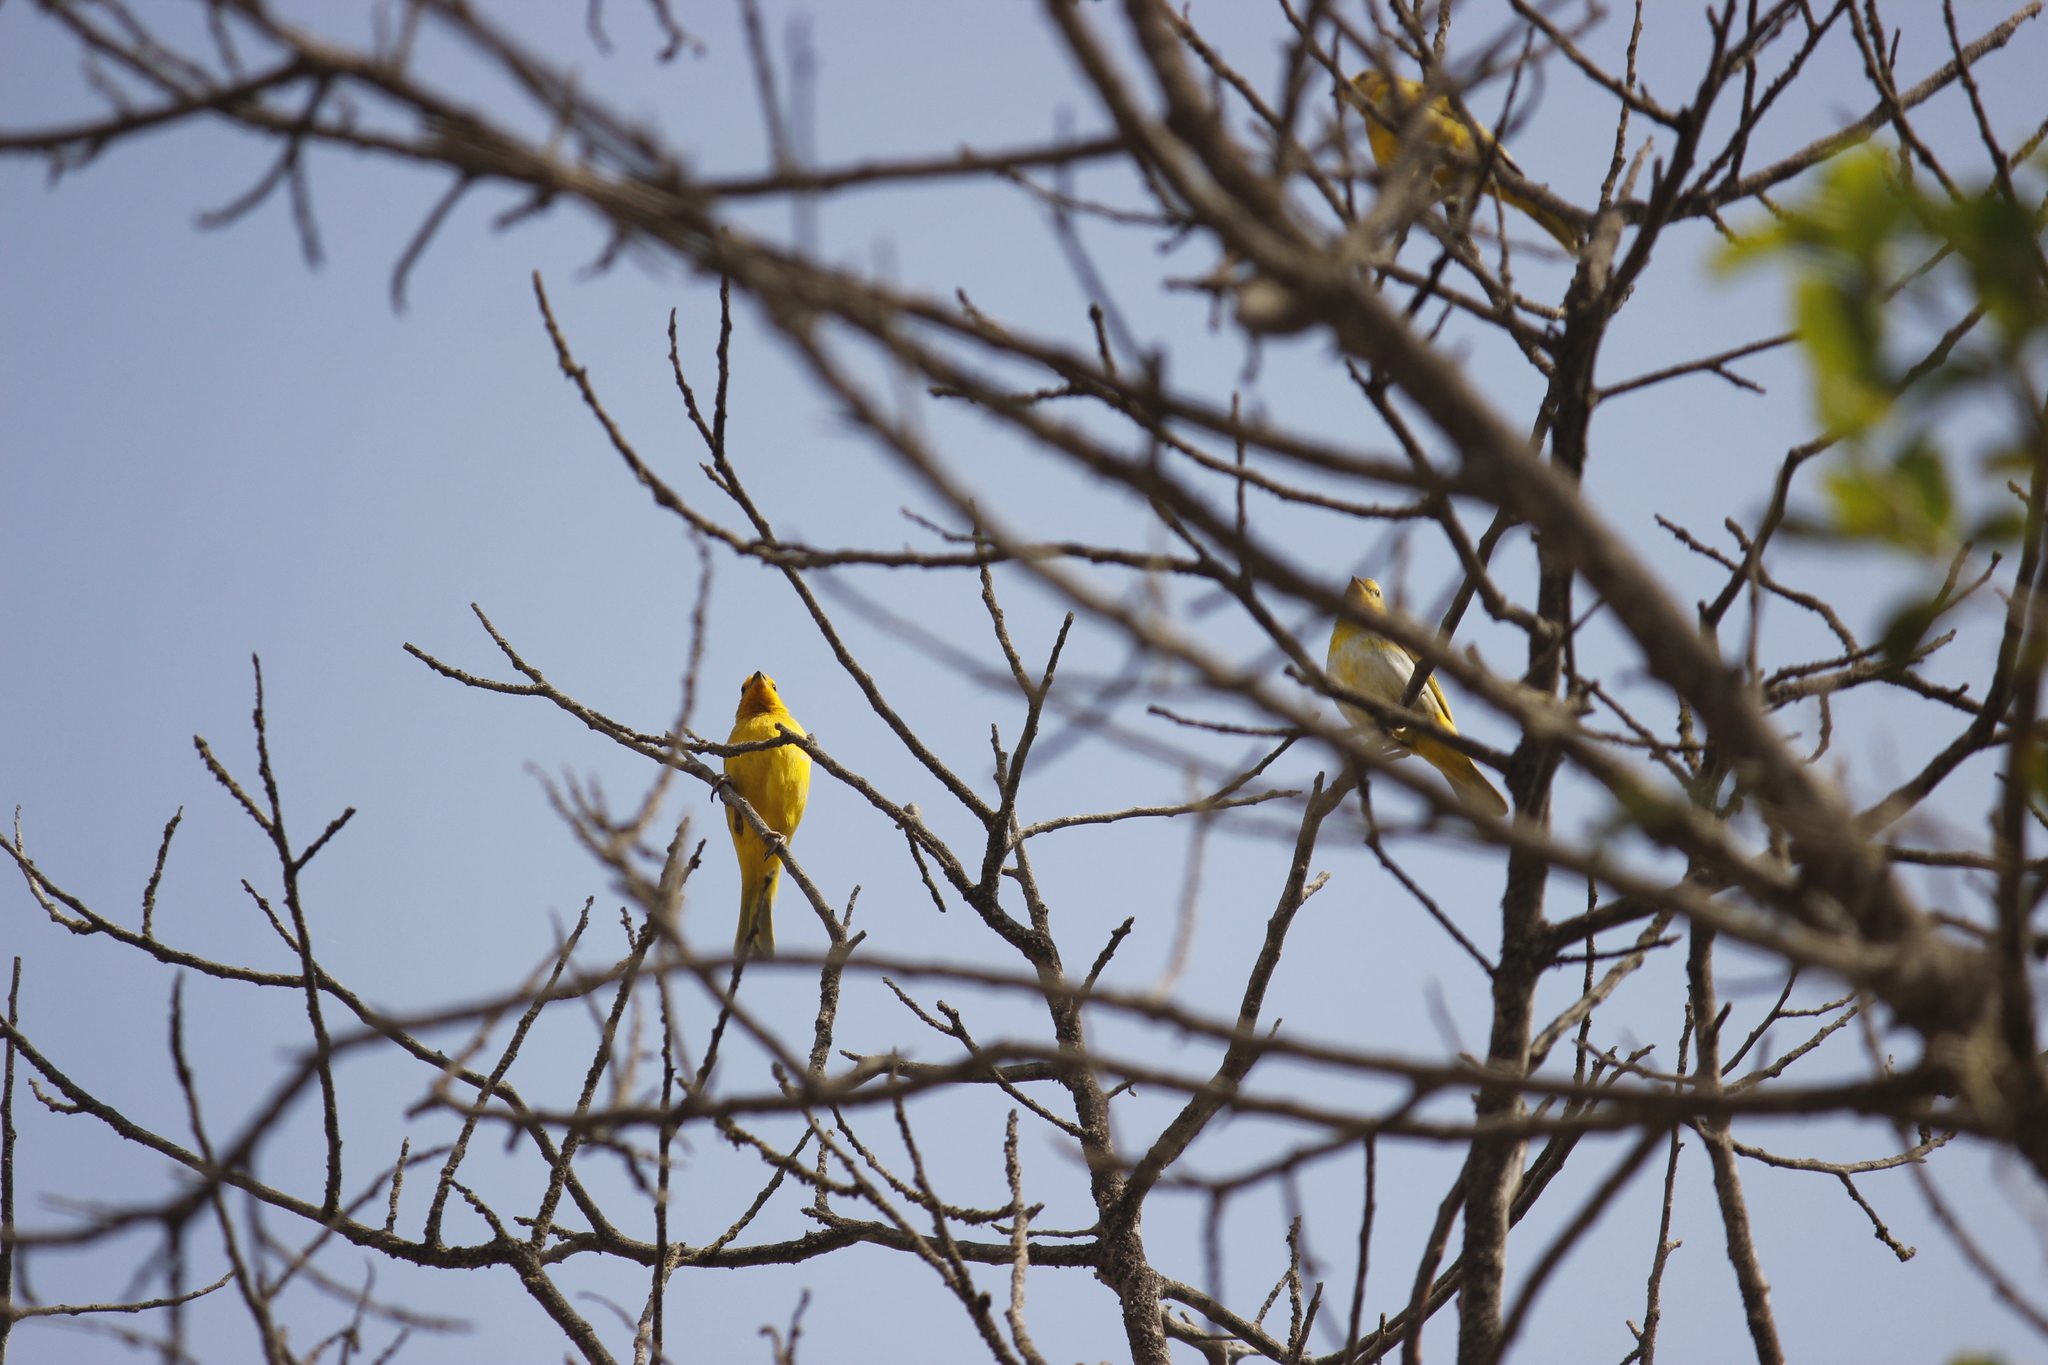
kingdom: Animalia
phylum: Chordata
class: Aves
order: Passeriformes
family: Thraupidae
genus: Sicalis
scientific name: Sicalis flaveola
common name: Saffron finch
